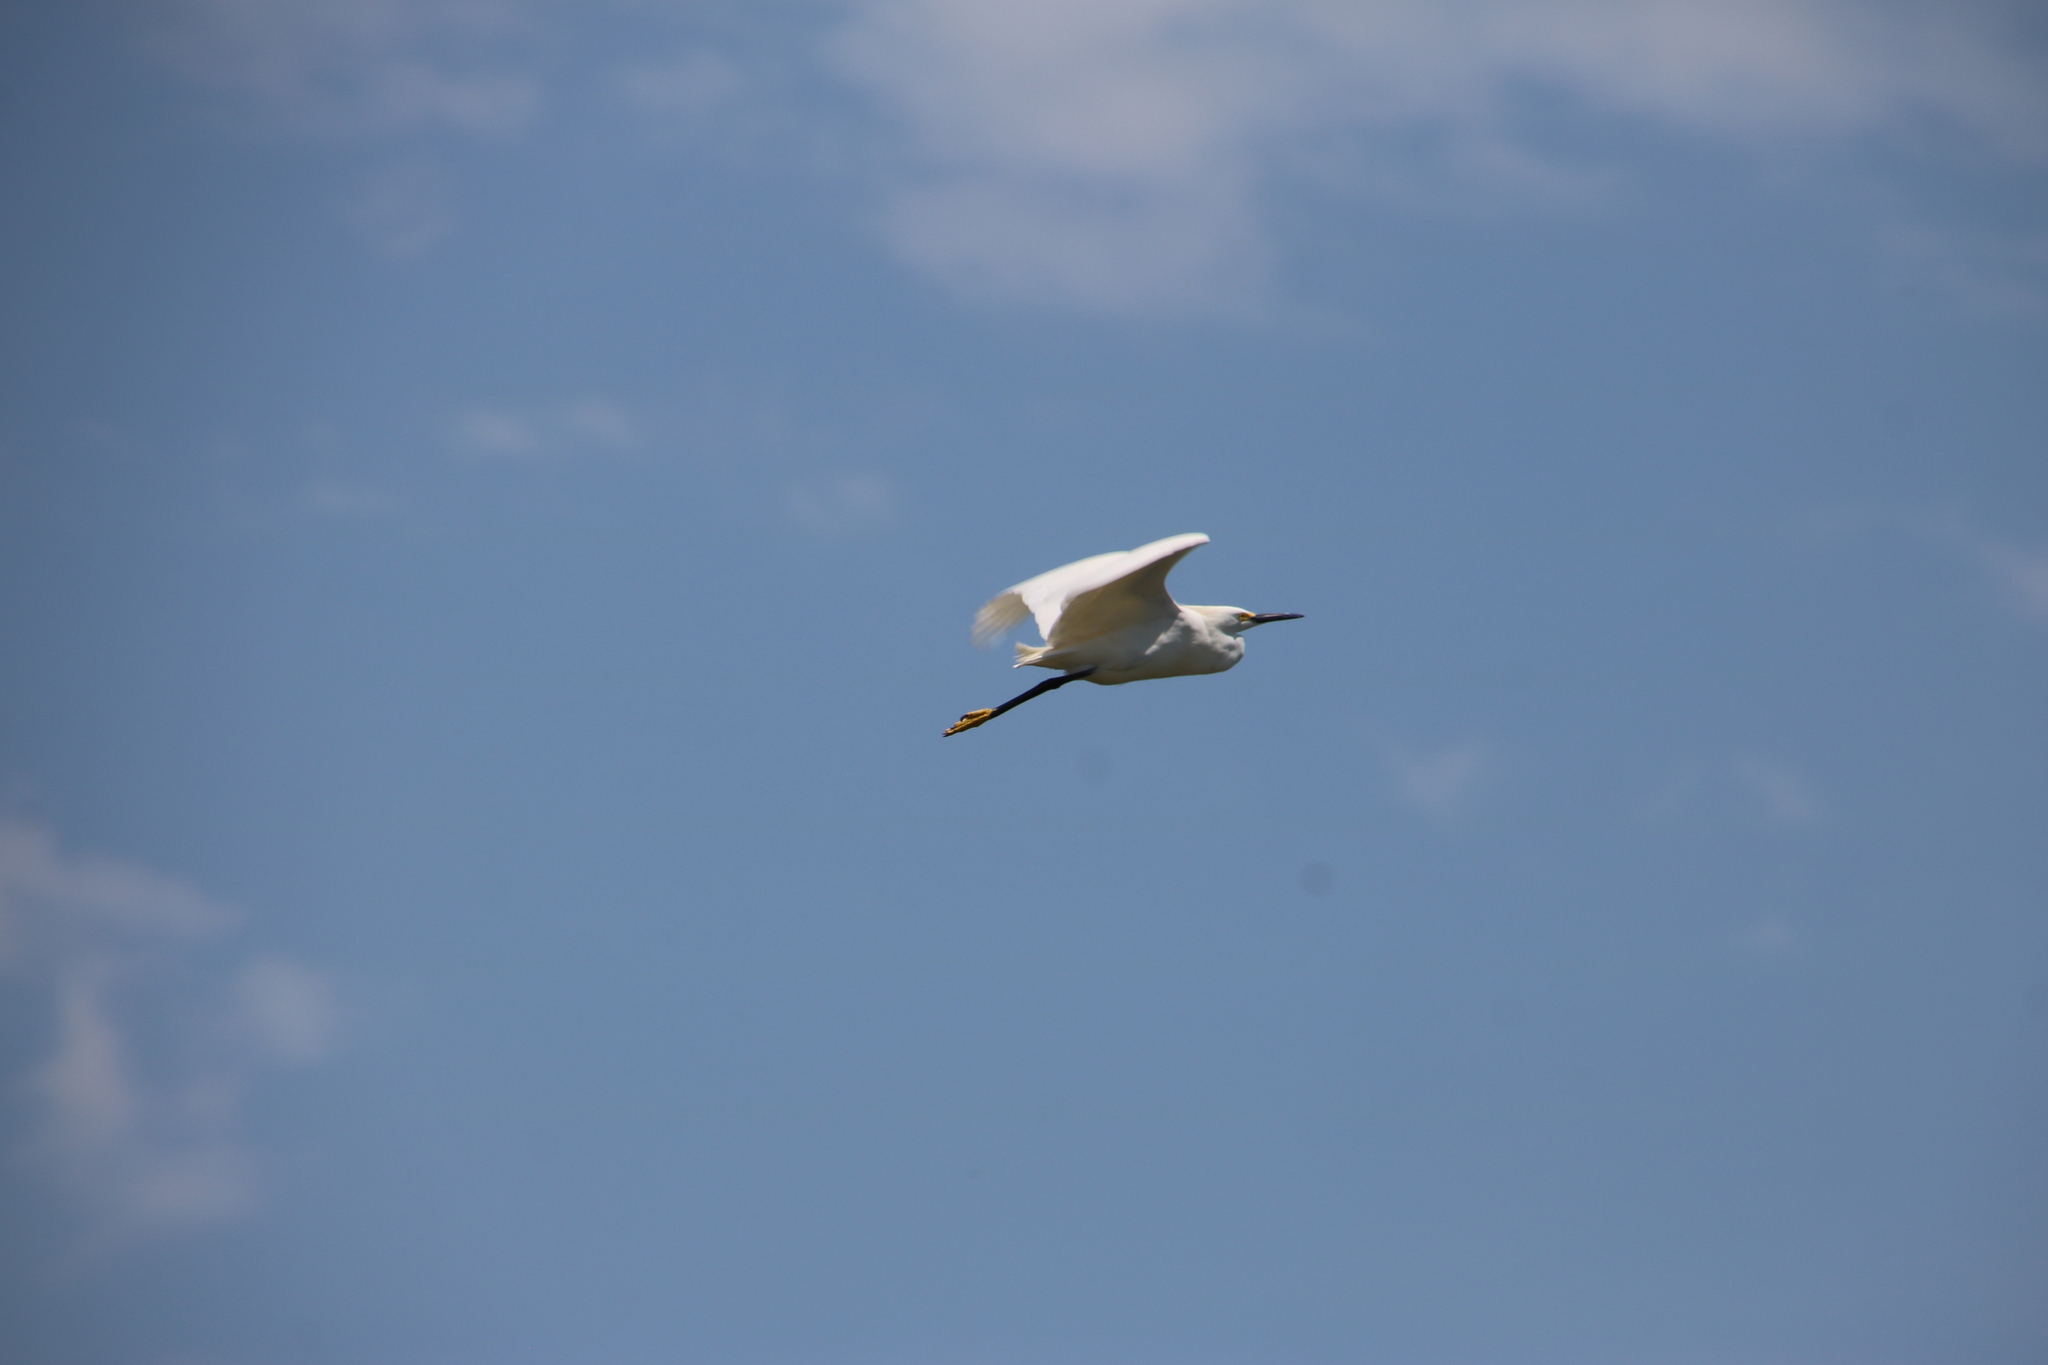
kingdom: Animalia
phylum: Chordata
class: Aves
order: Pelecaniformes
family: Ardeidae
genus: Egretta
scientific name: Egretta thula
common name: Snowy egret
